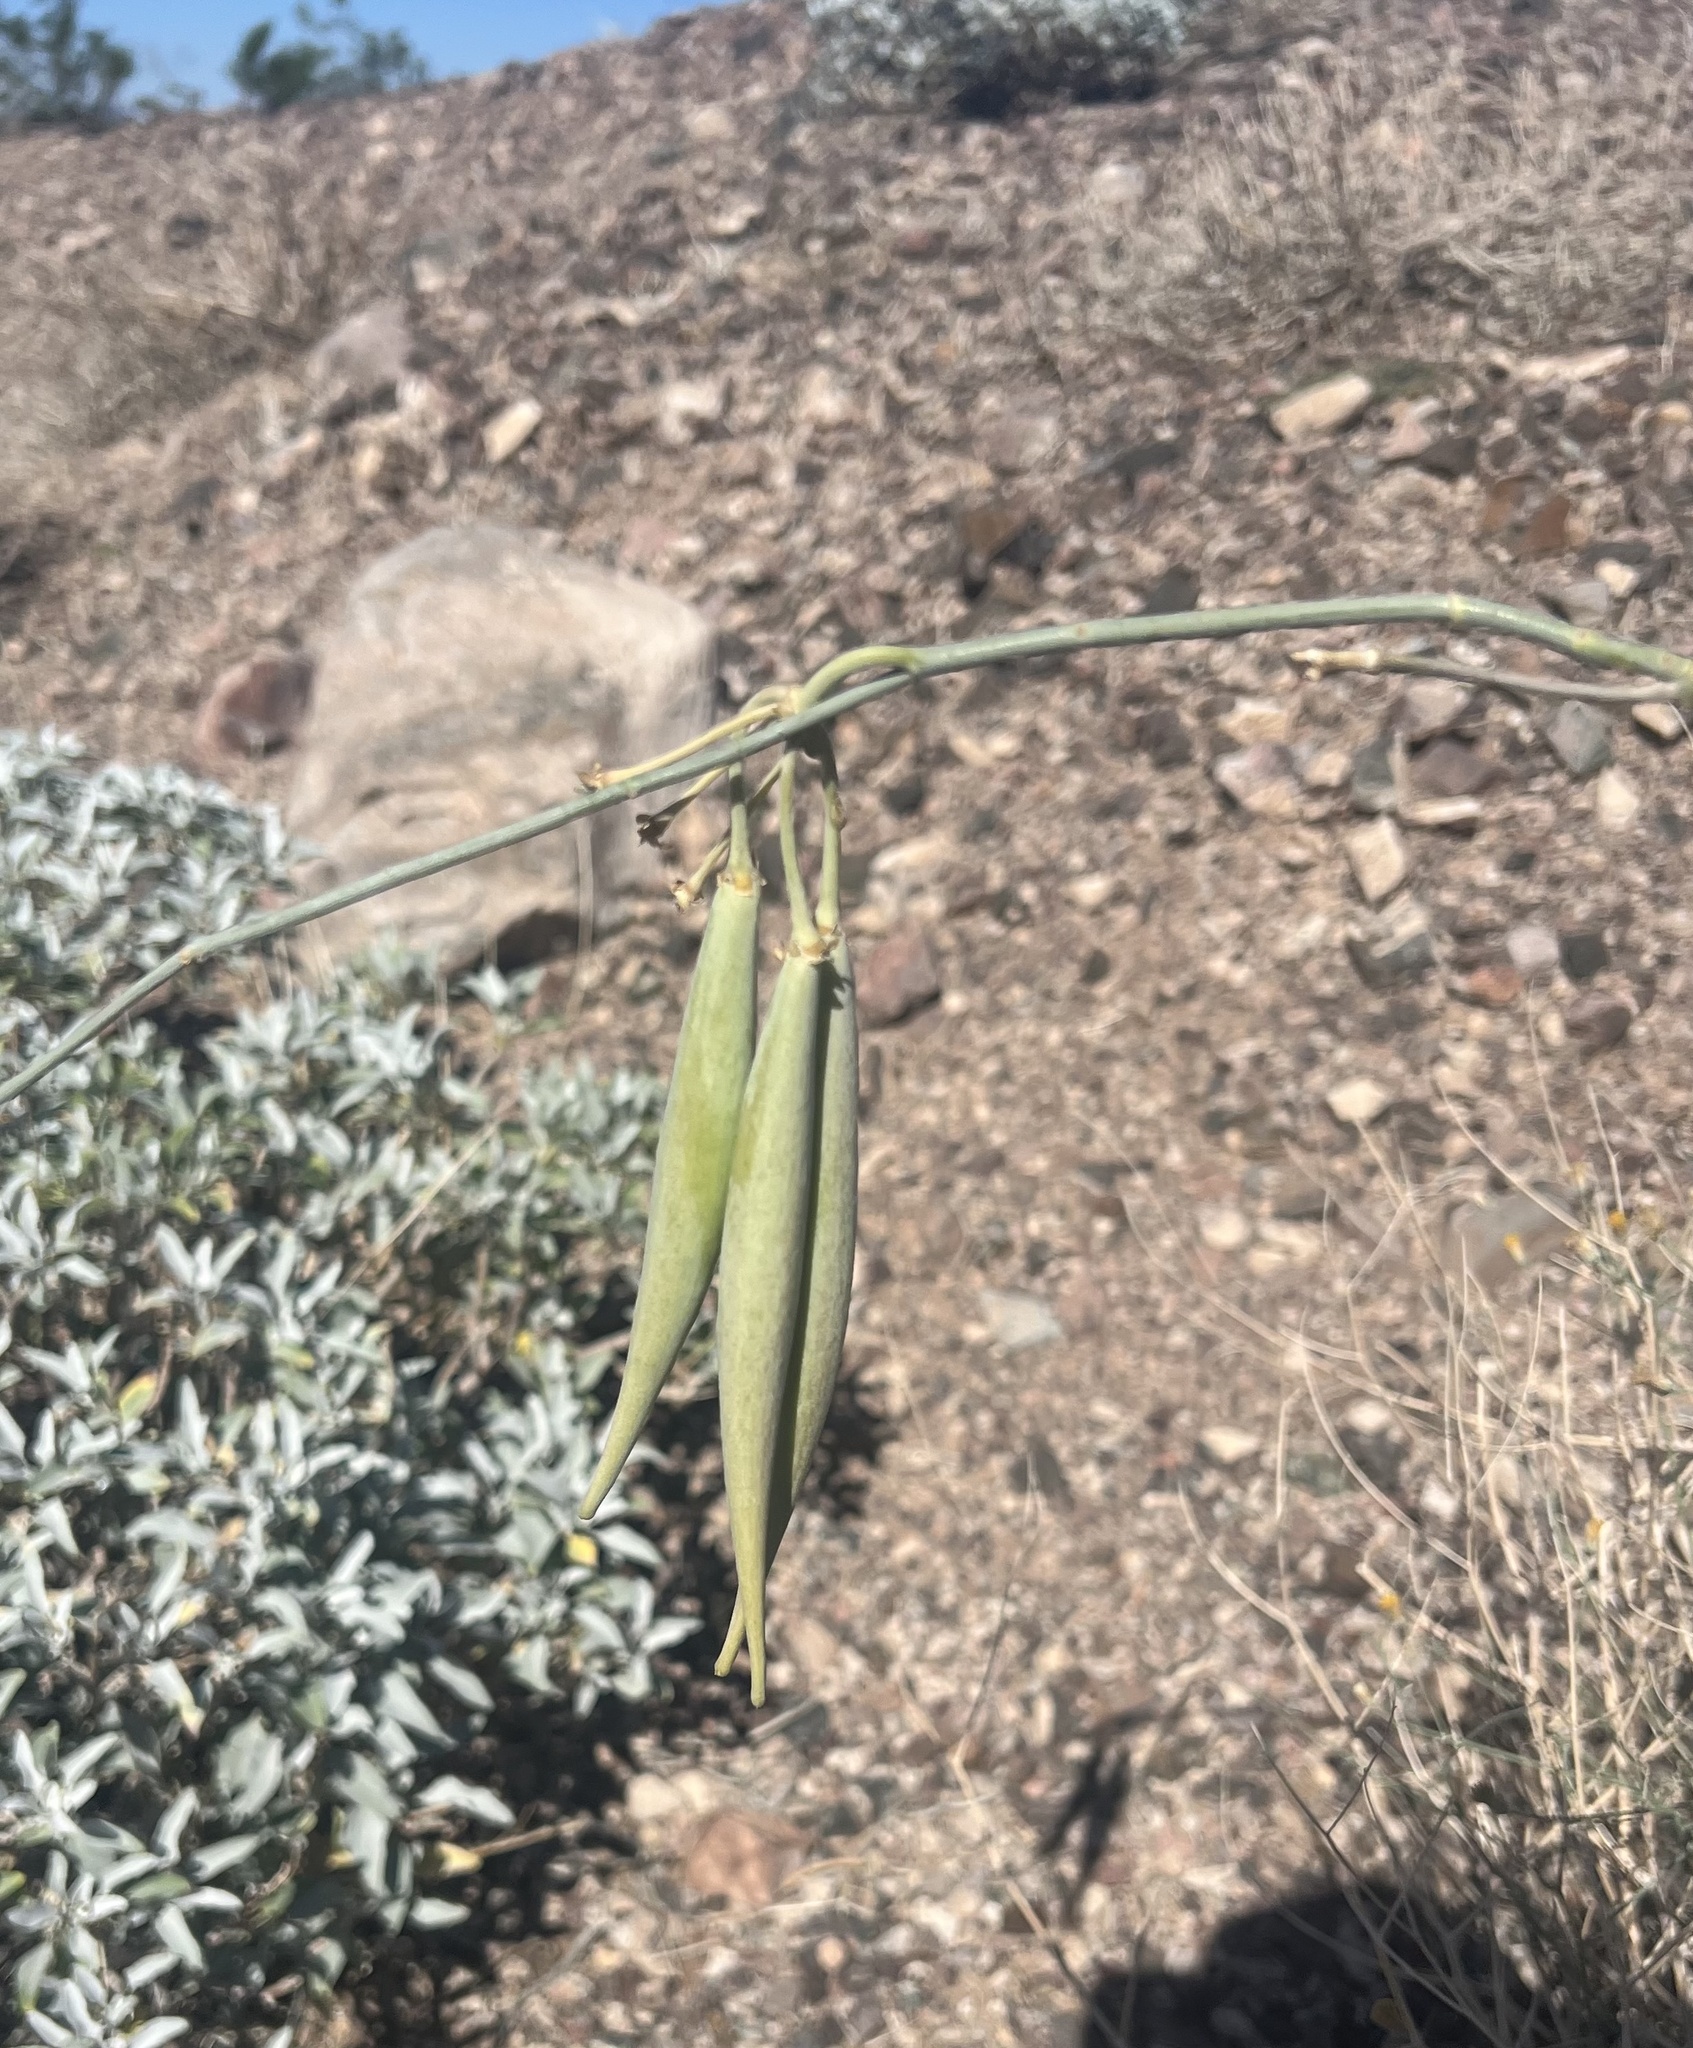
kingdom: Plantae
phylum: Tracheophyta
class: Magnoliopsida
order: Gentianales
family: Apocynaceae
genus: Asclepias
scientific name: Asclepias subulata
